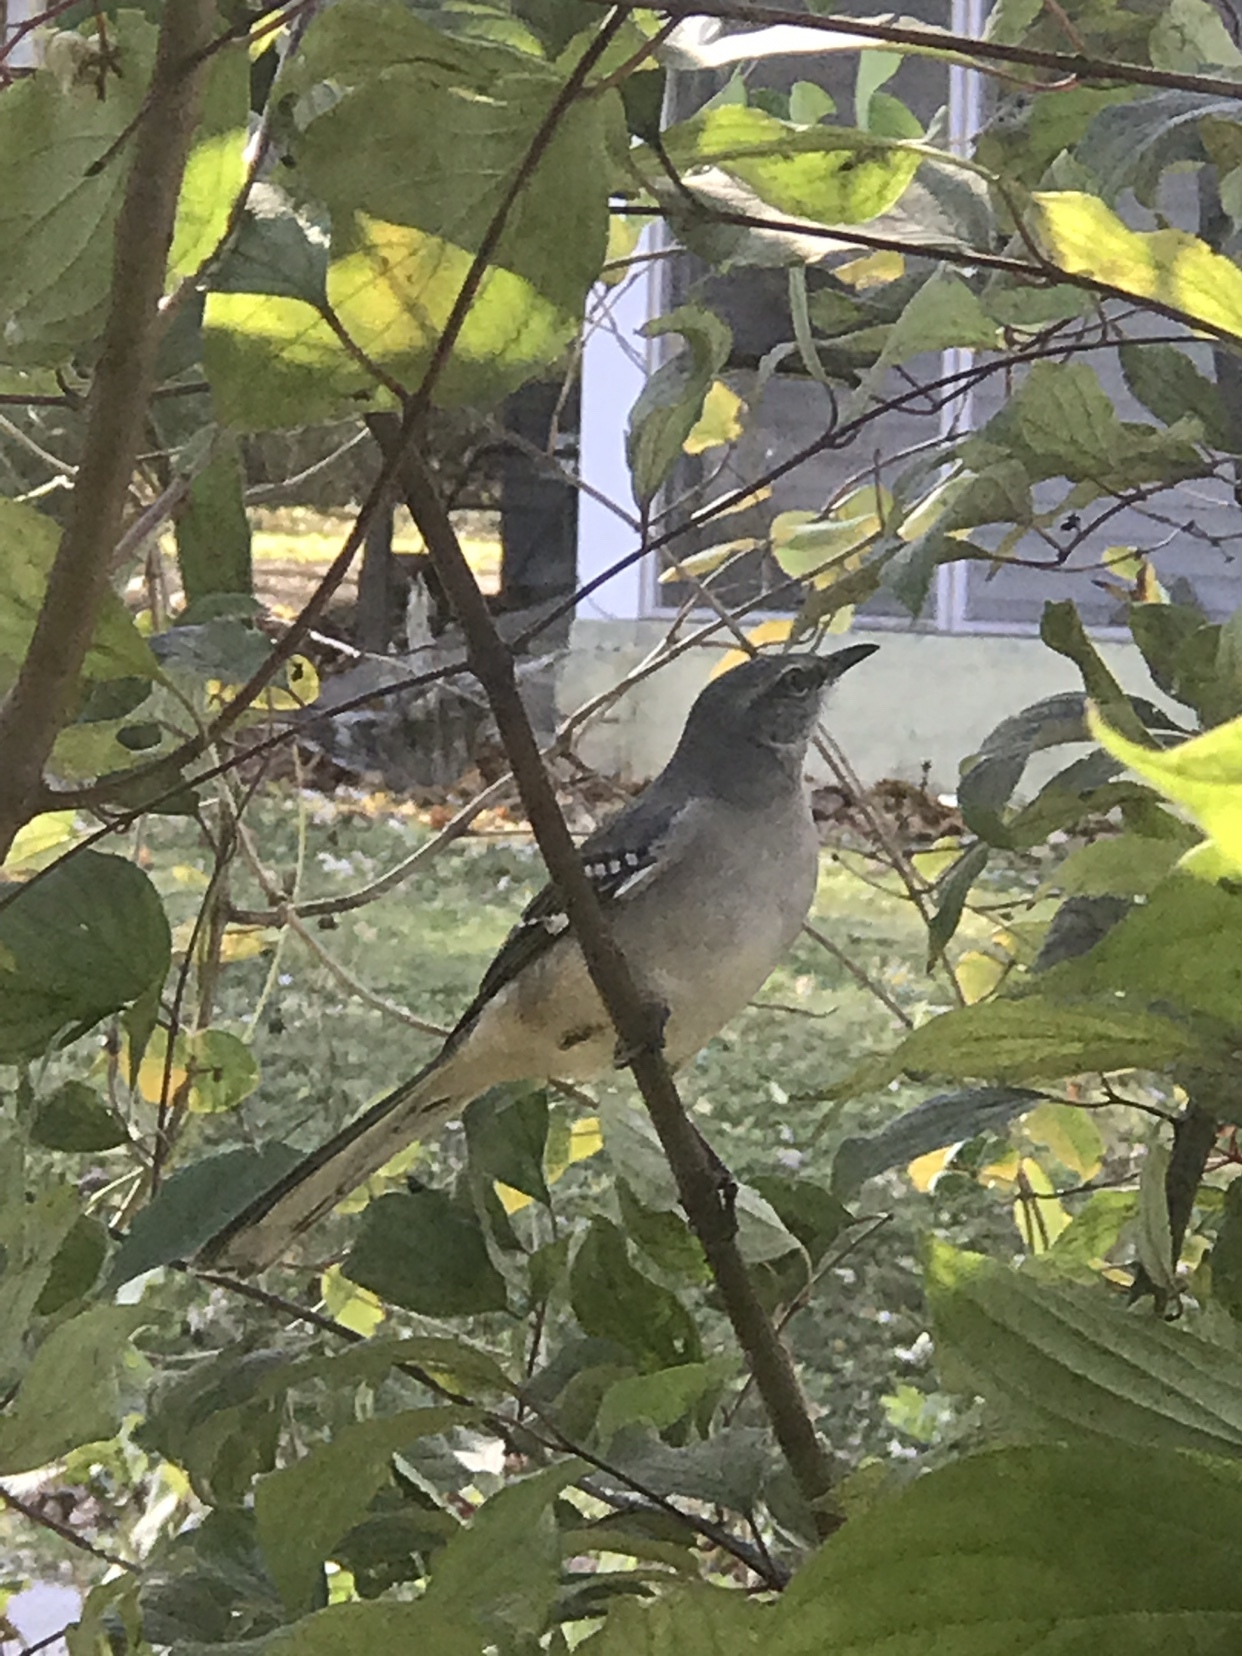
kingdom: Animalia
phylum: Chordata
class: Aves
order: Passeriformes
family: Mimidae
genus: Mimus
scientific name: Mimus polyglottos
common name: Northern mockingbird
